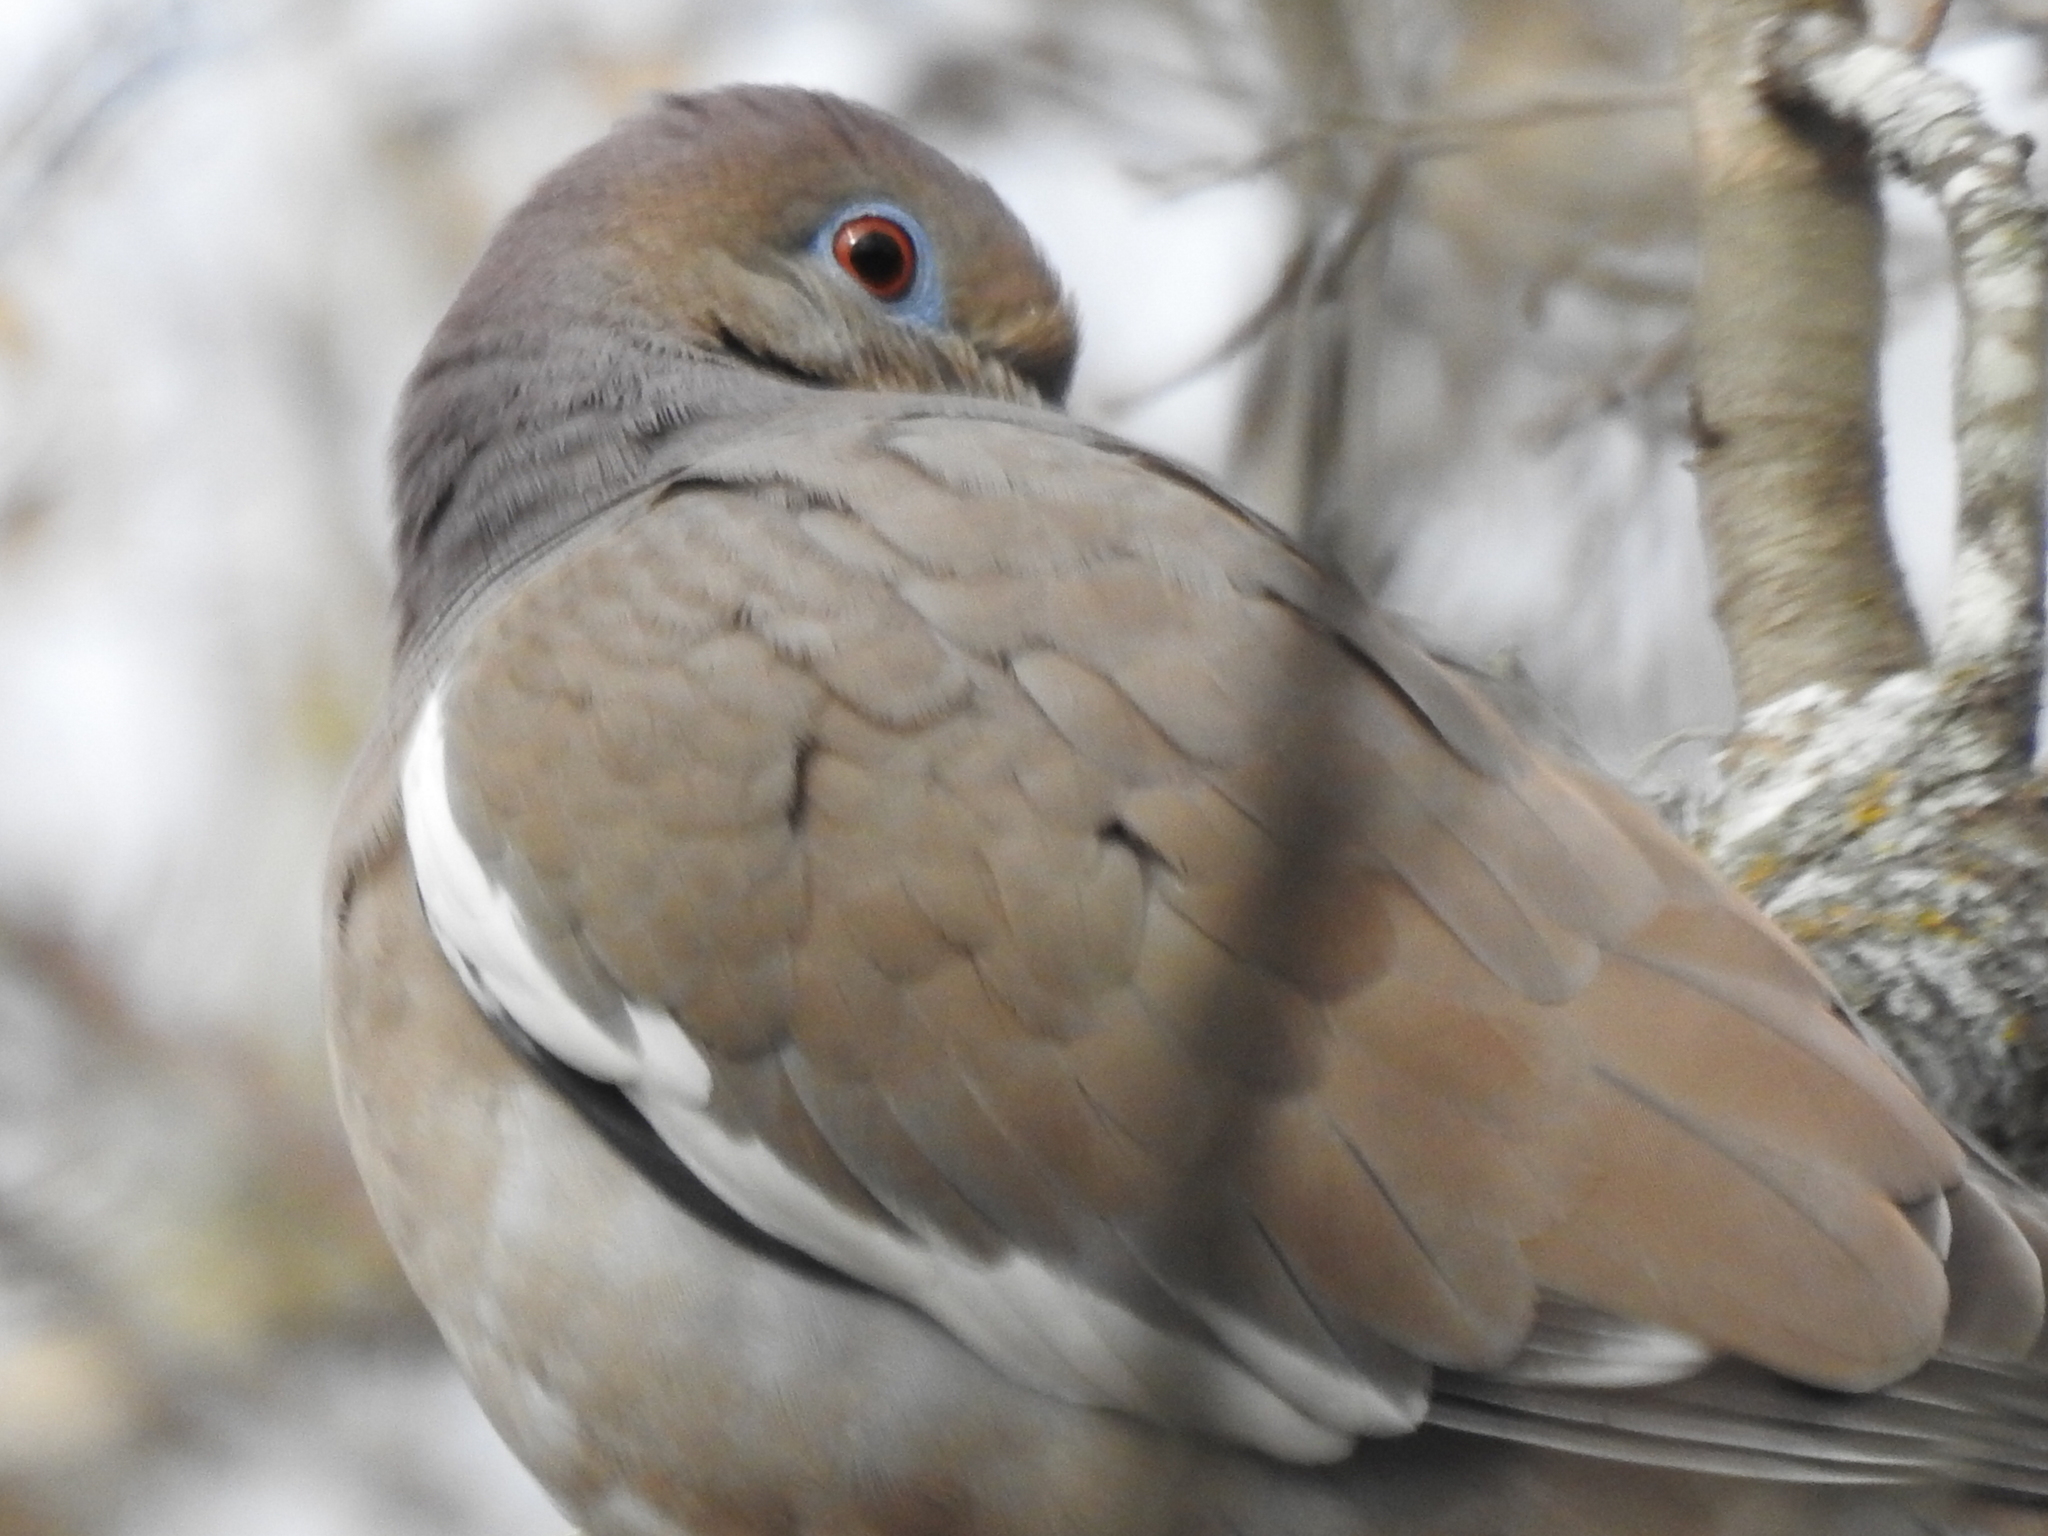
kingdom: Animalia
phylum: Chordata
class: Aves
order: Columbiformes
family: Columbidae
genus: Zenaida
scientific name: Zenaida asiatica
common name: White-winged dove
